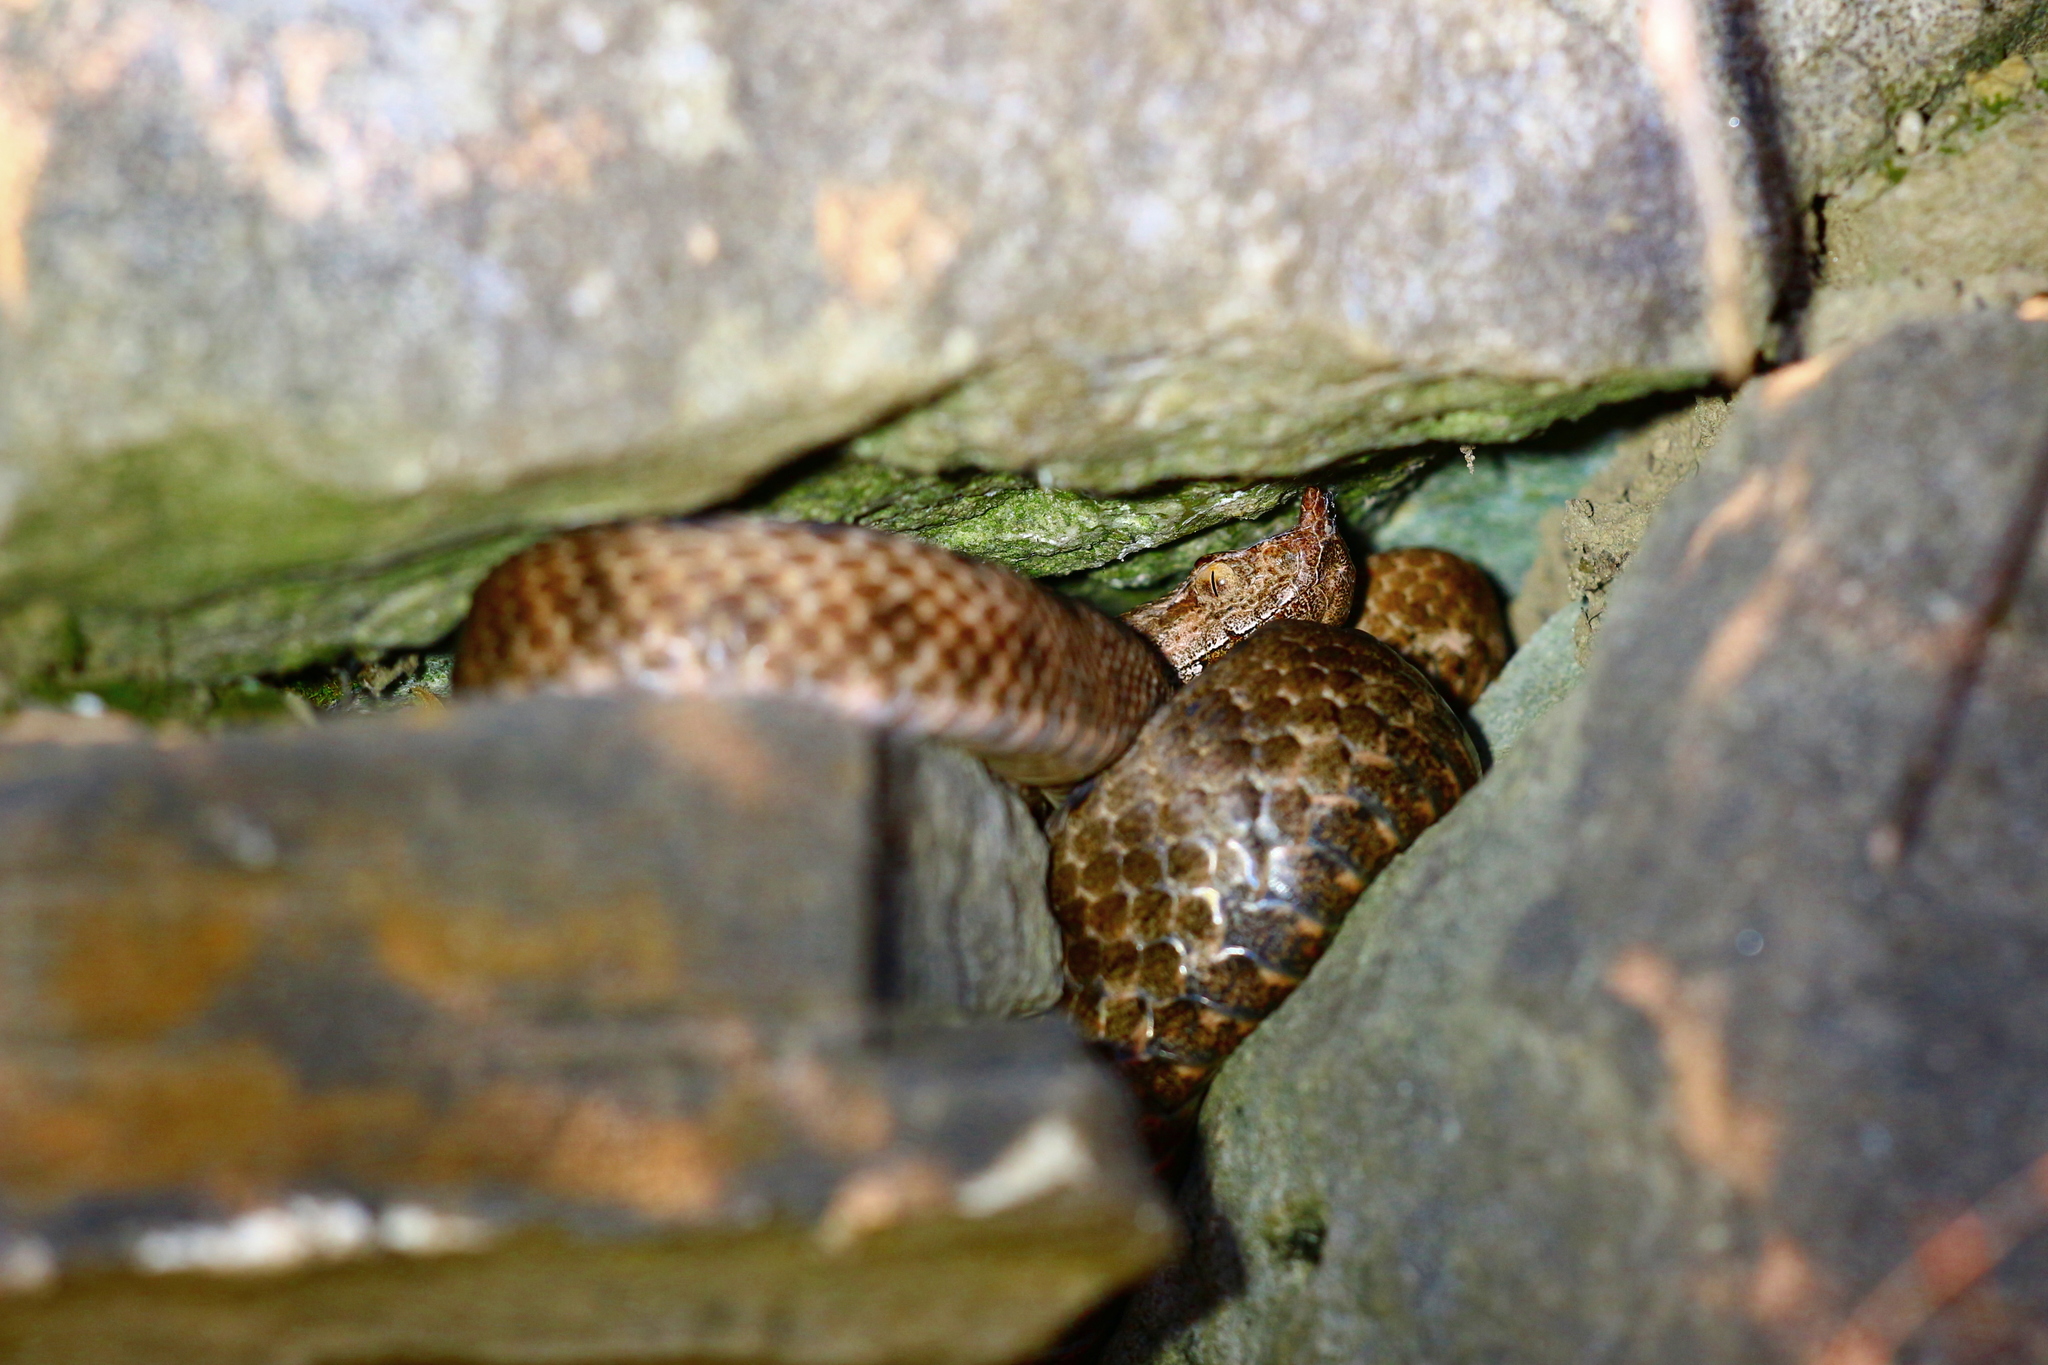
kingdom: Animalia
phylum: Chordata
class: Squamata
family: Viperidae
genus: Vipera
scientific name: Vipera ammodytes
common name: Sand viper
